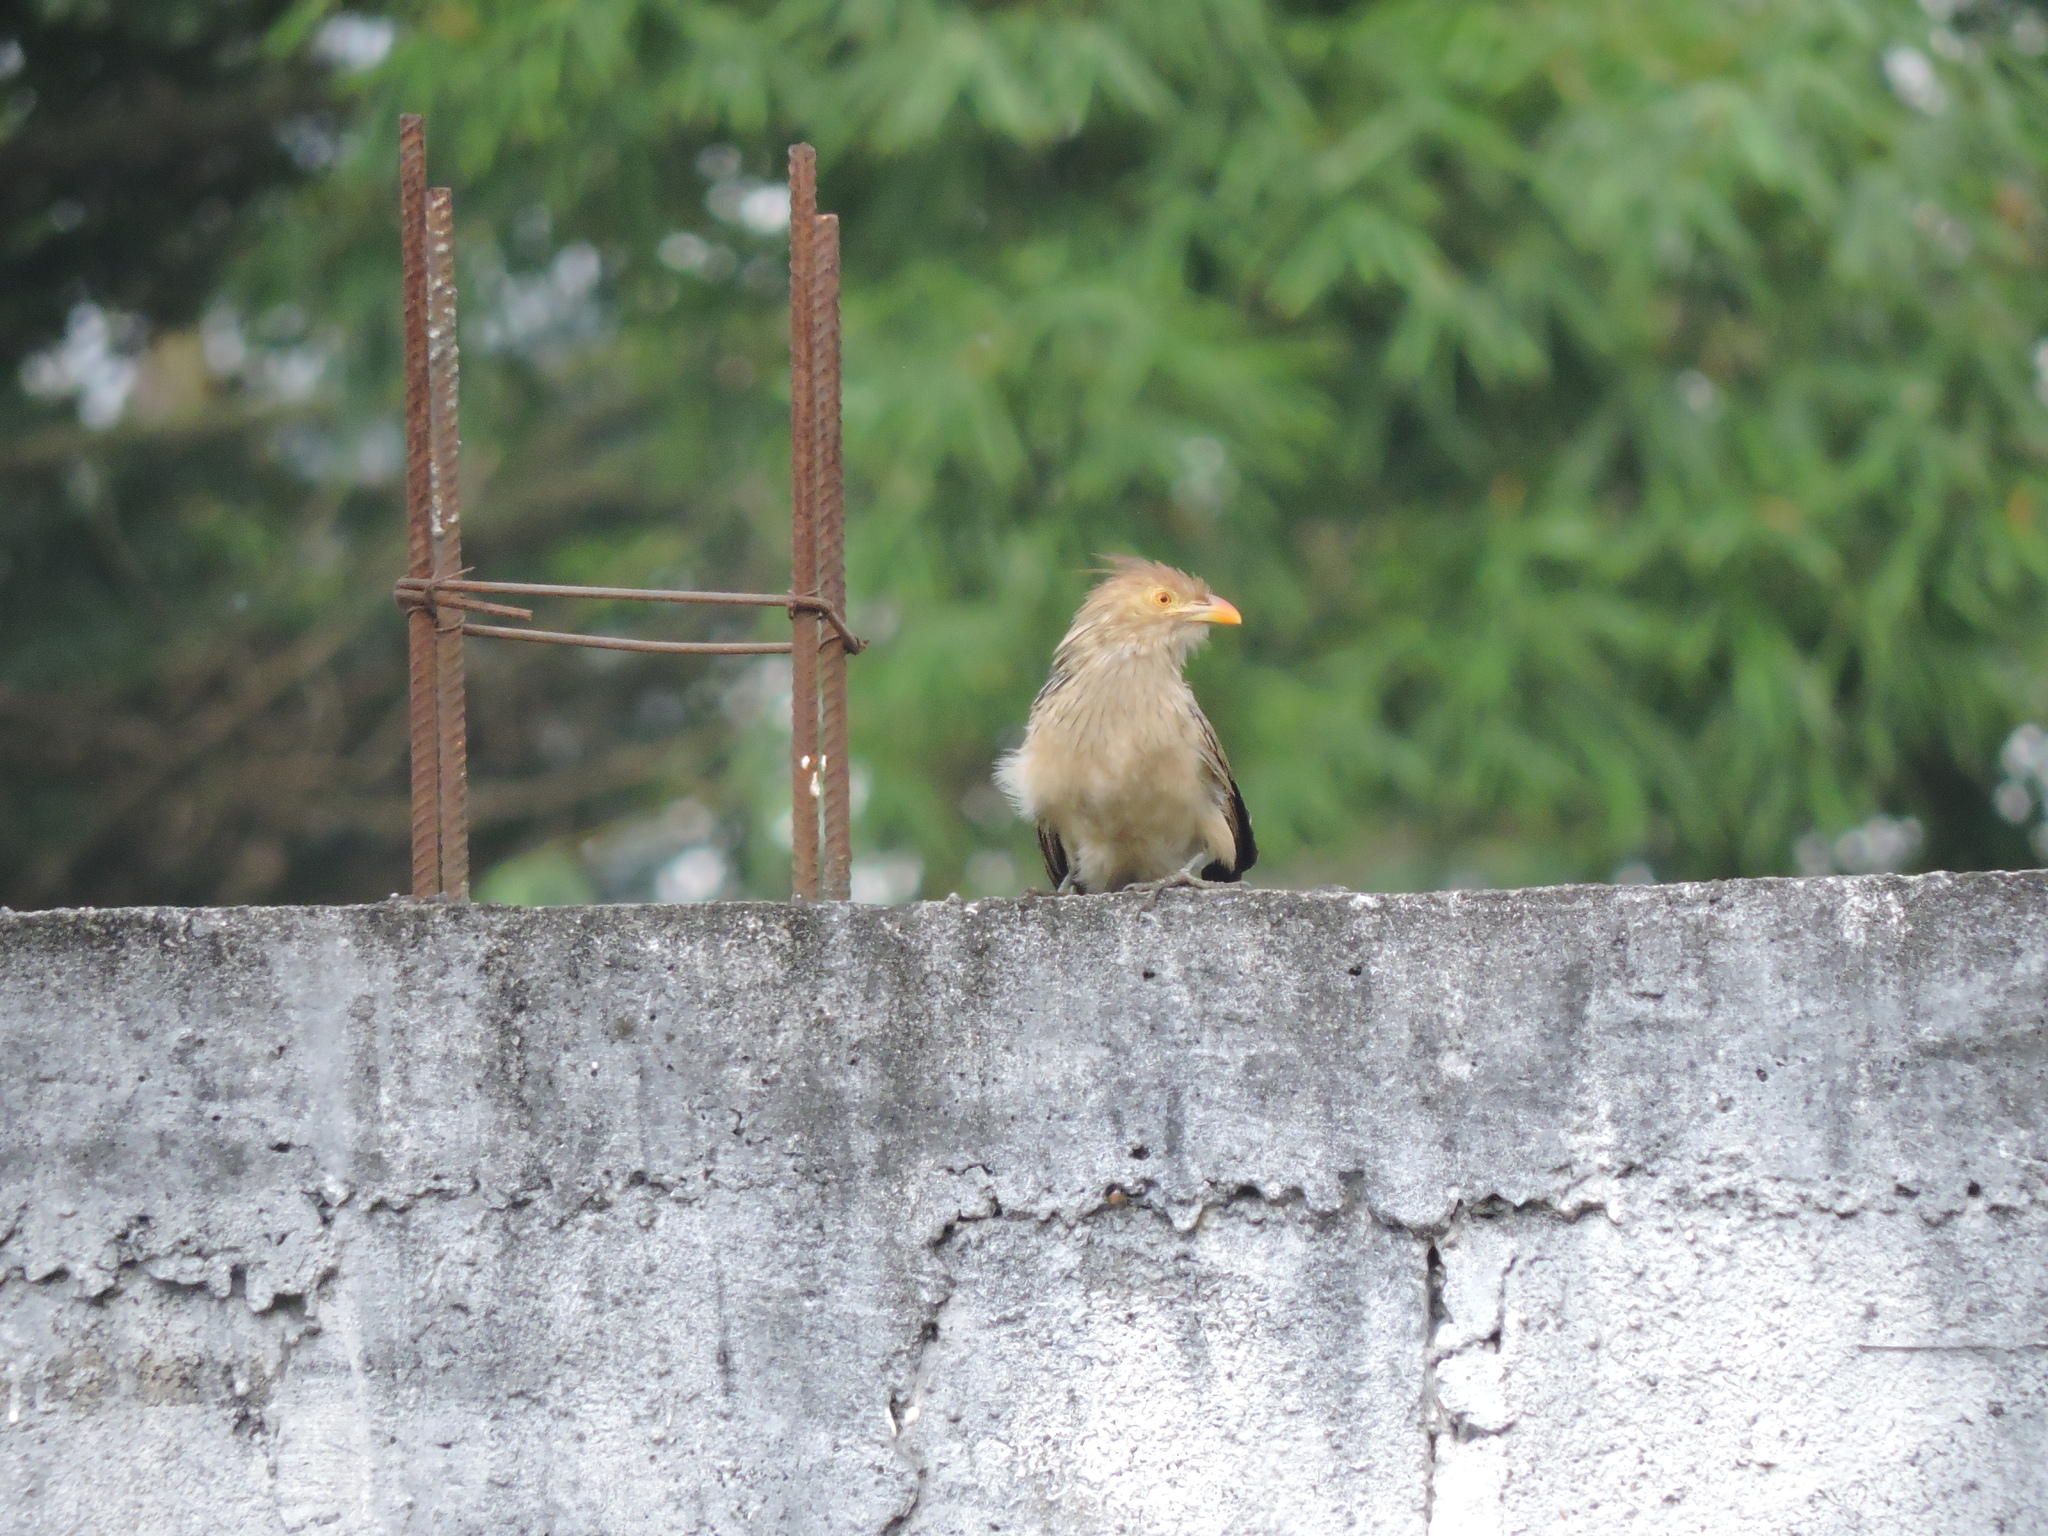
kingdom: Animalia
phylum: Chordata
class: Aves
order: Cuculiformes
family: Cuculidae
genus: Guira
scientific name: Guira guira
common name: Guira cuckoo
